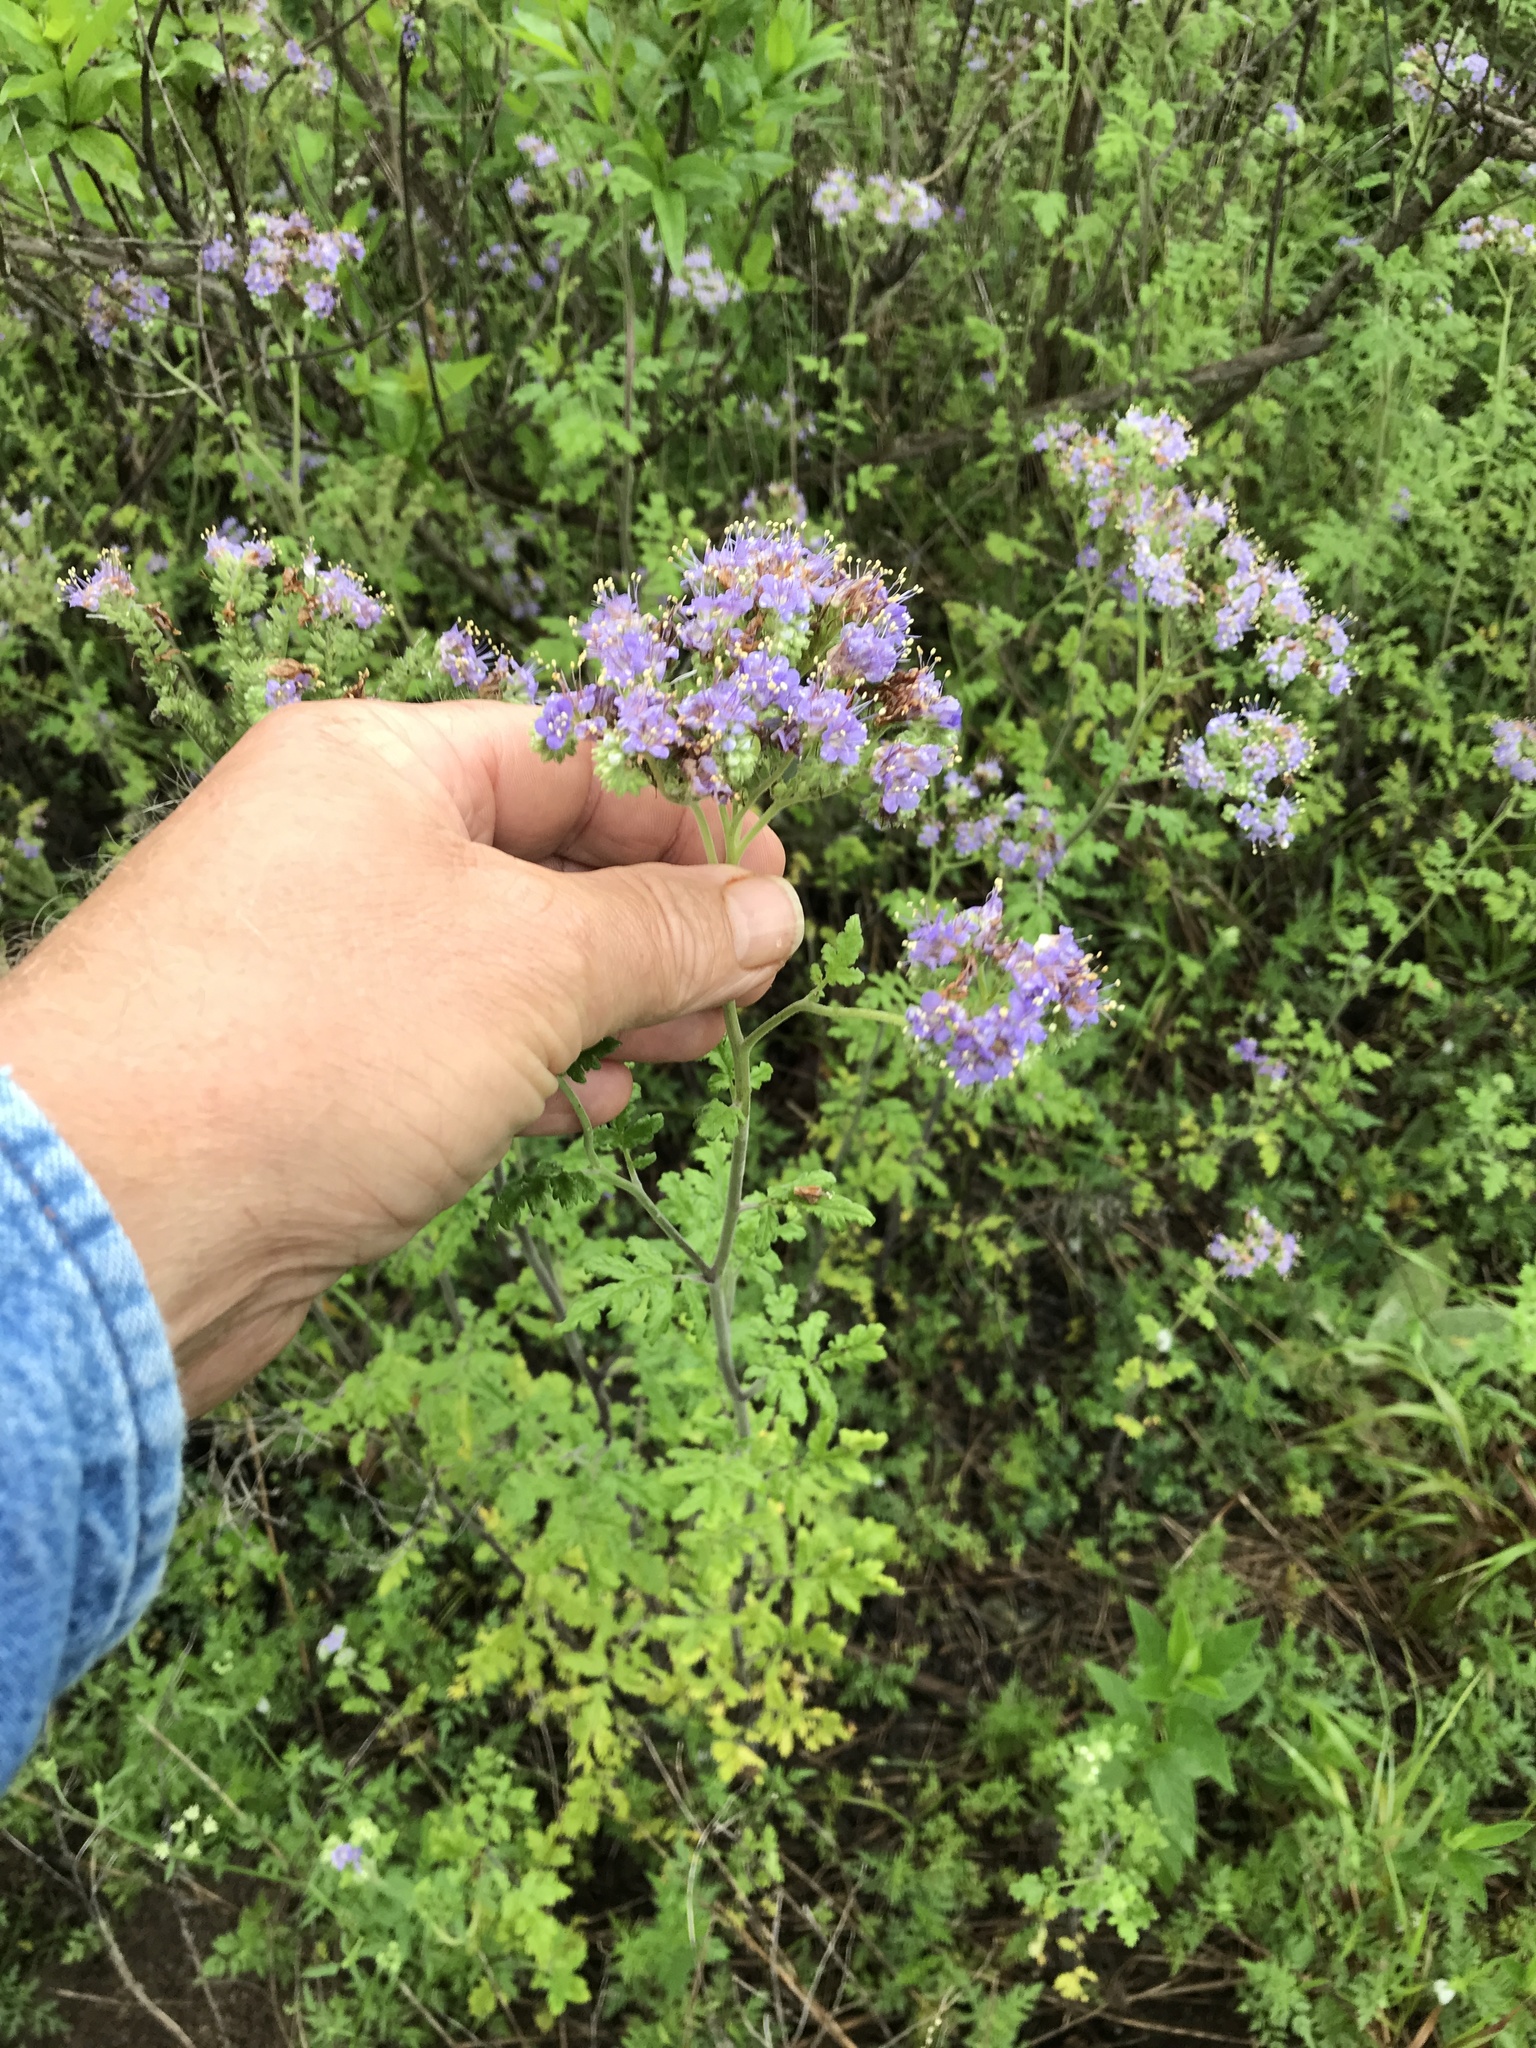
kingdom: Plantae
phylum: Tracheophyta
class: Magnoliopsida
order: Boraginales
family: Hydrophyllaceae
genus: Phacelia
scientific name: Phacelia congesta
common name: Blue curls
